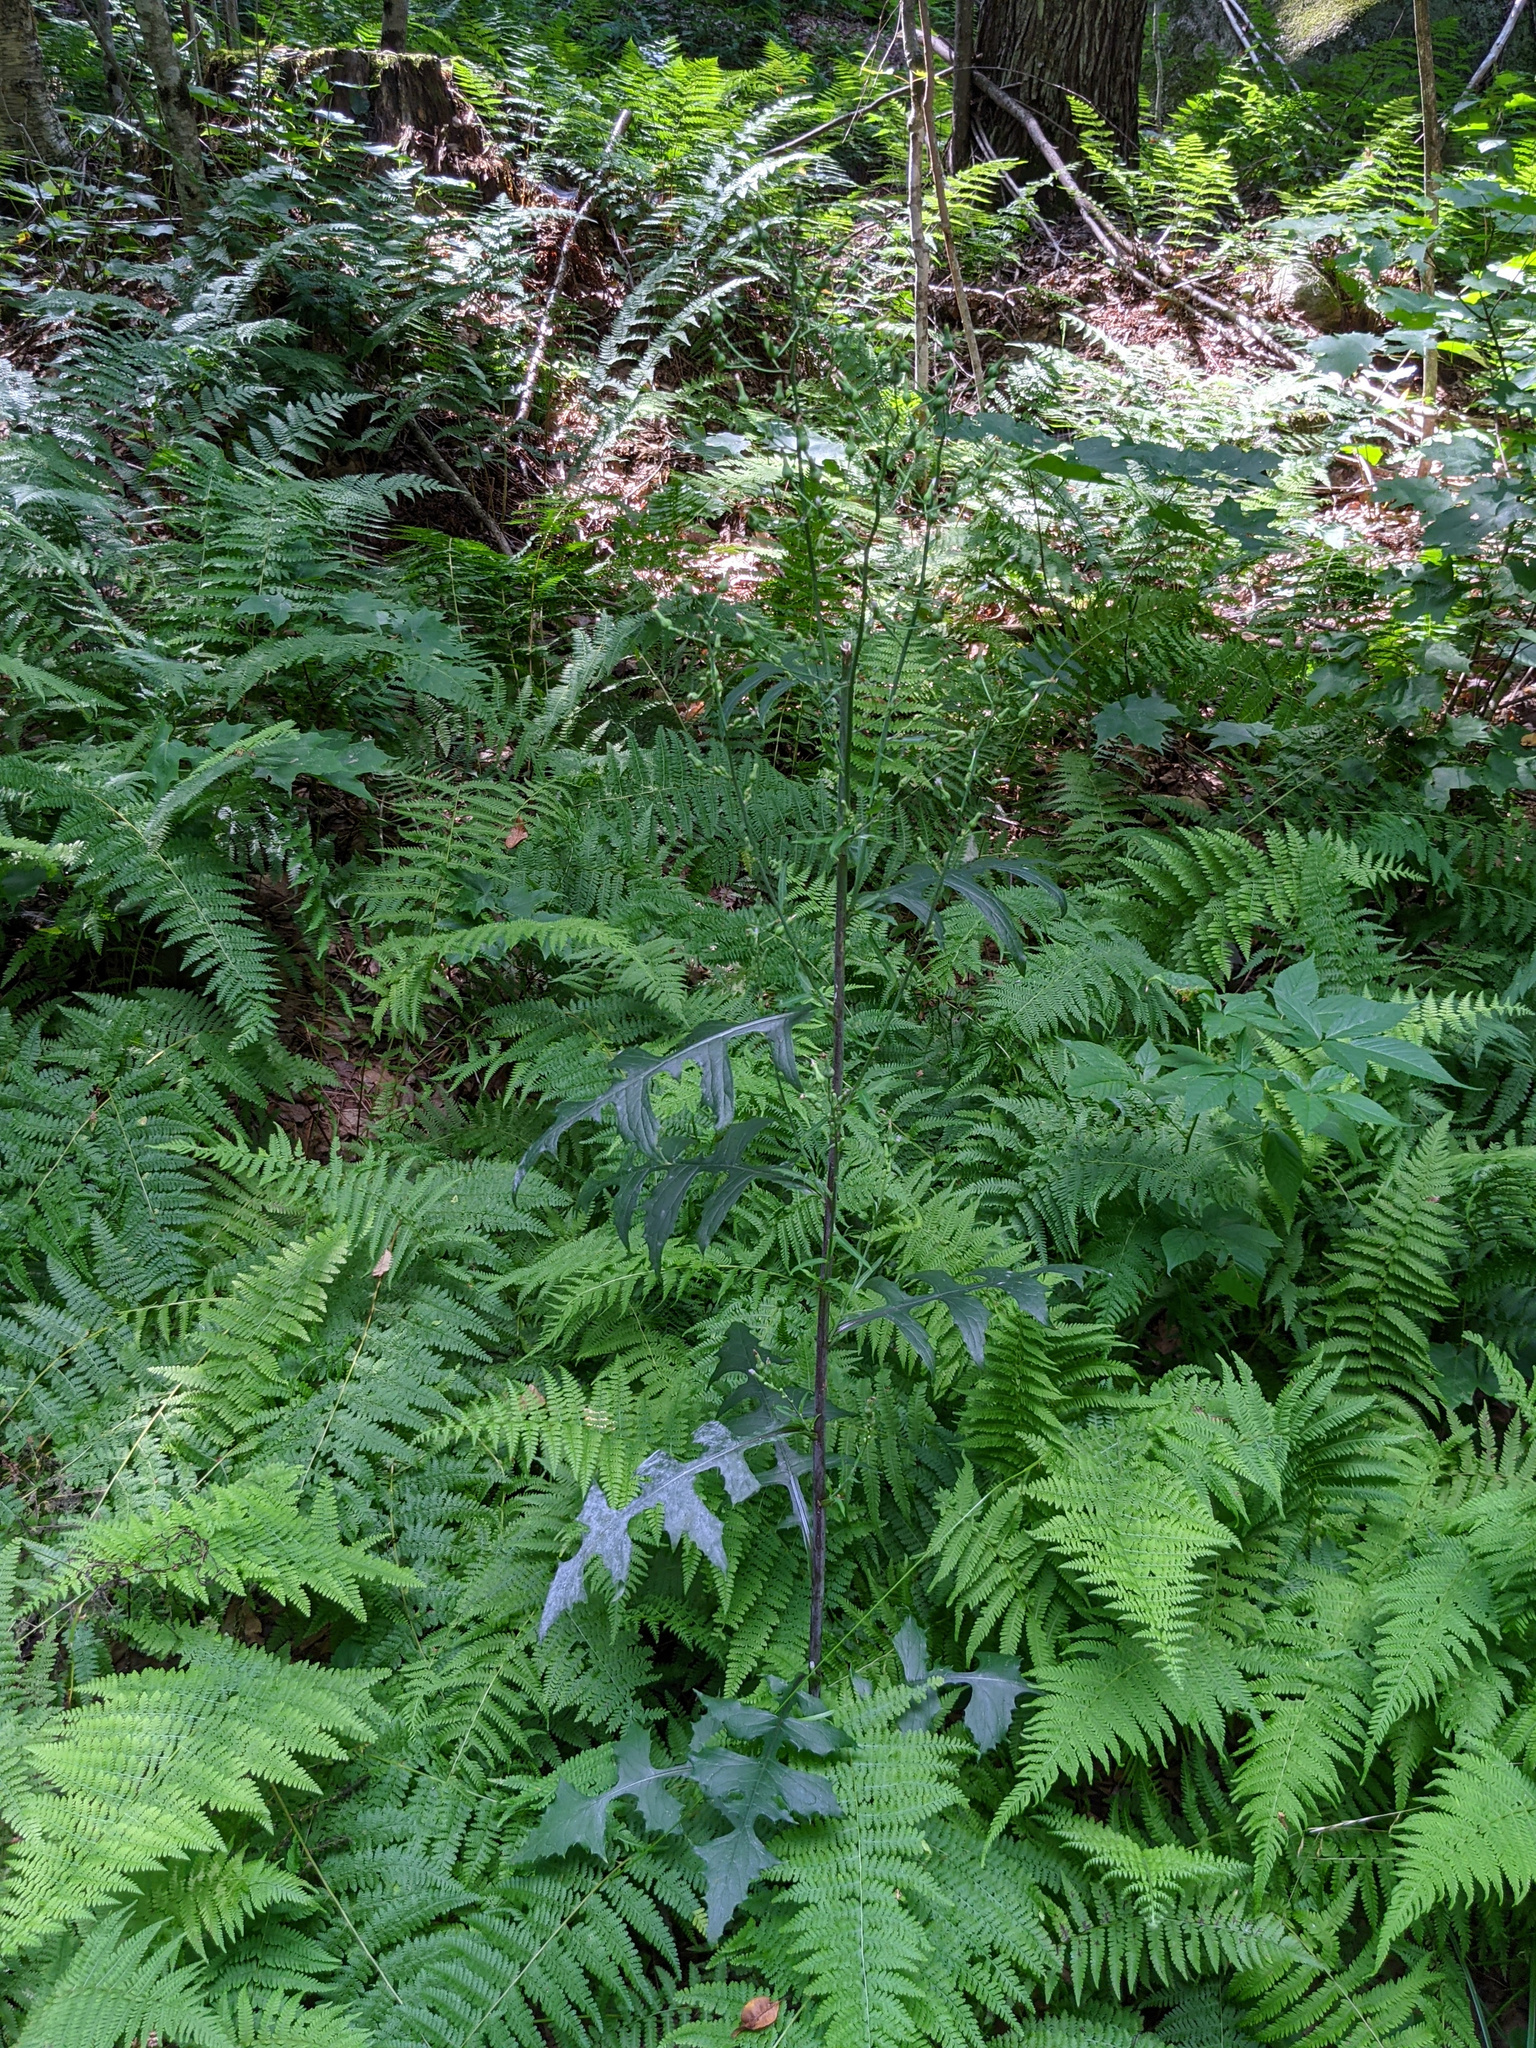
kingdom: Plantae
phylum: Tracheophyta
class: Magnoliopsida
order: Asterales
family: Asteraceae
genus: Lactuca
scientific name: Lactuca biennis
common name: Blue wood lettuce
